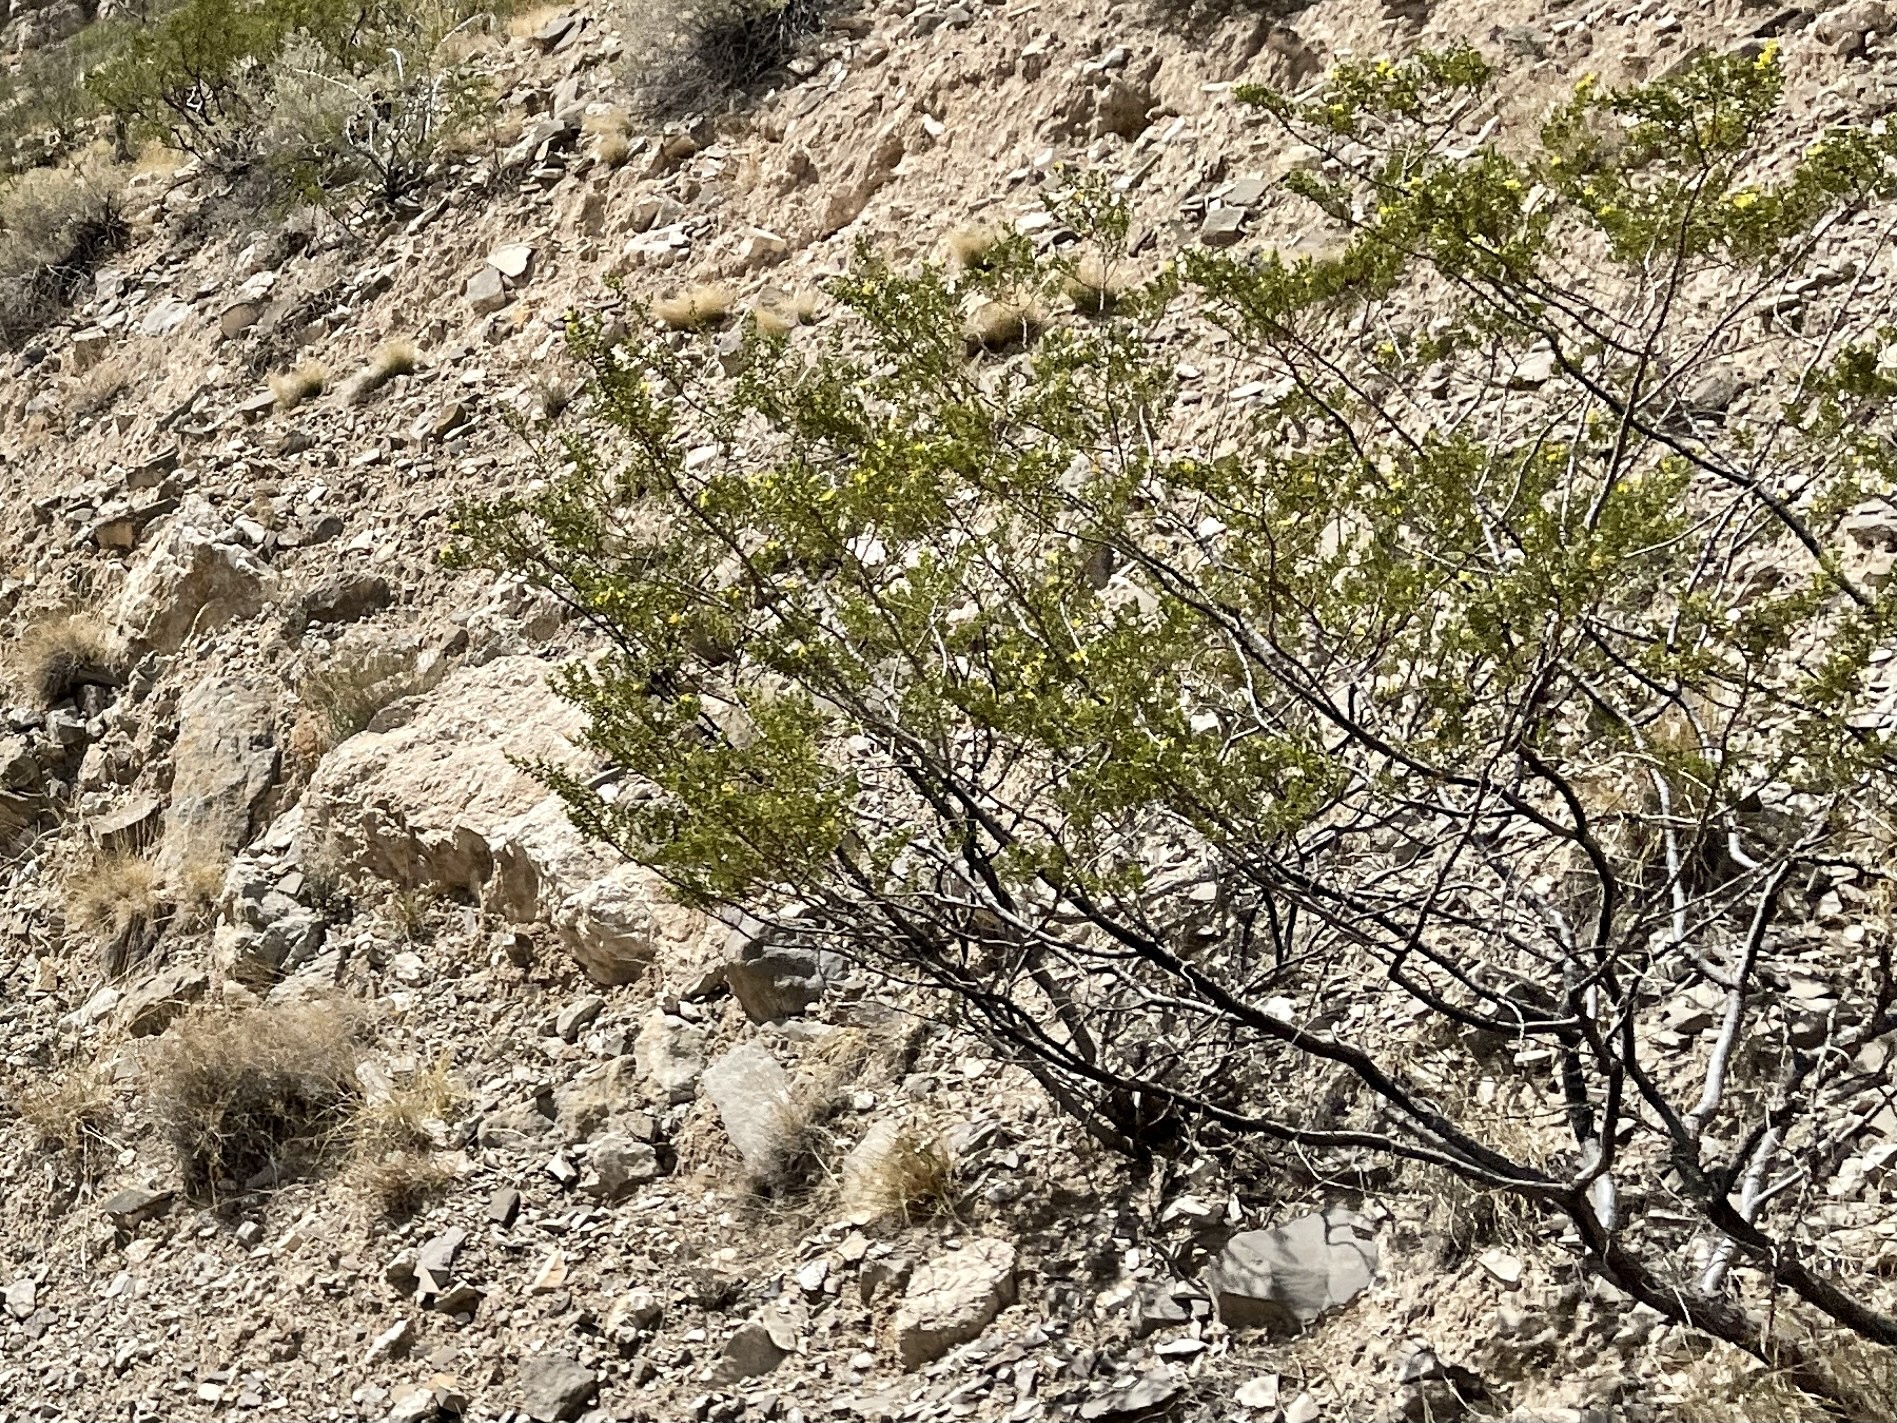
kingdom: Plantae
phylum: Tracheophyta
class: Magnoliopsida
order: Zygophyllales
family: Zygophyllaceae
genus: Larrea
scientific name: Larrea tridentata
